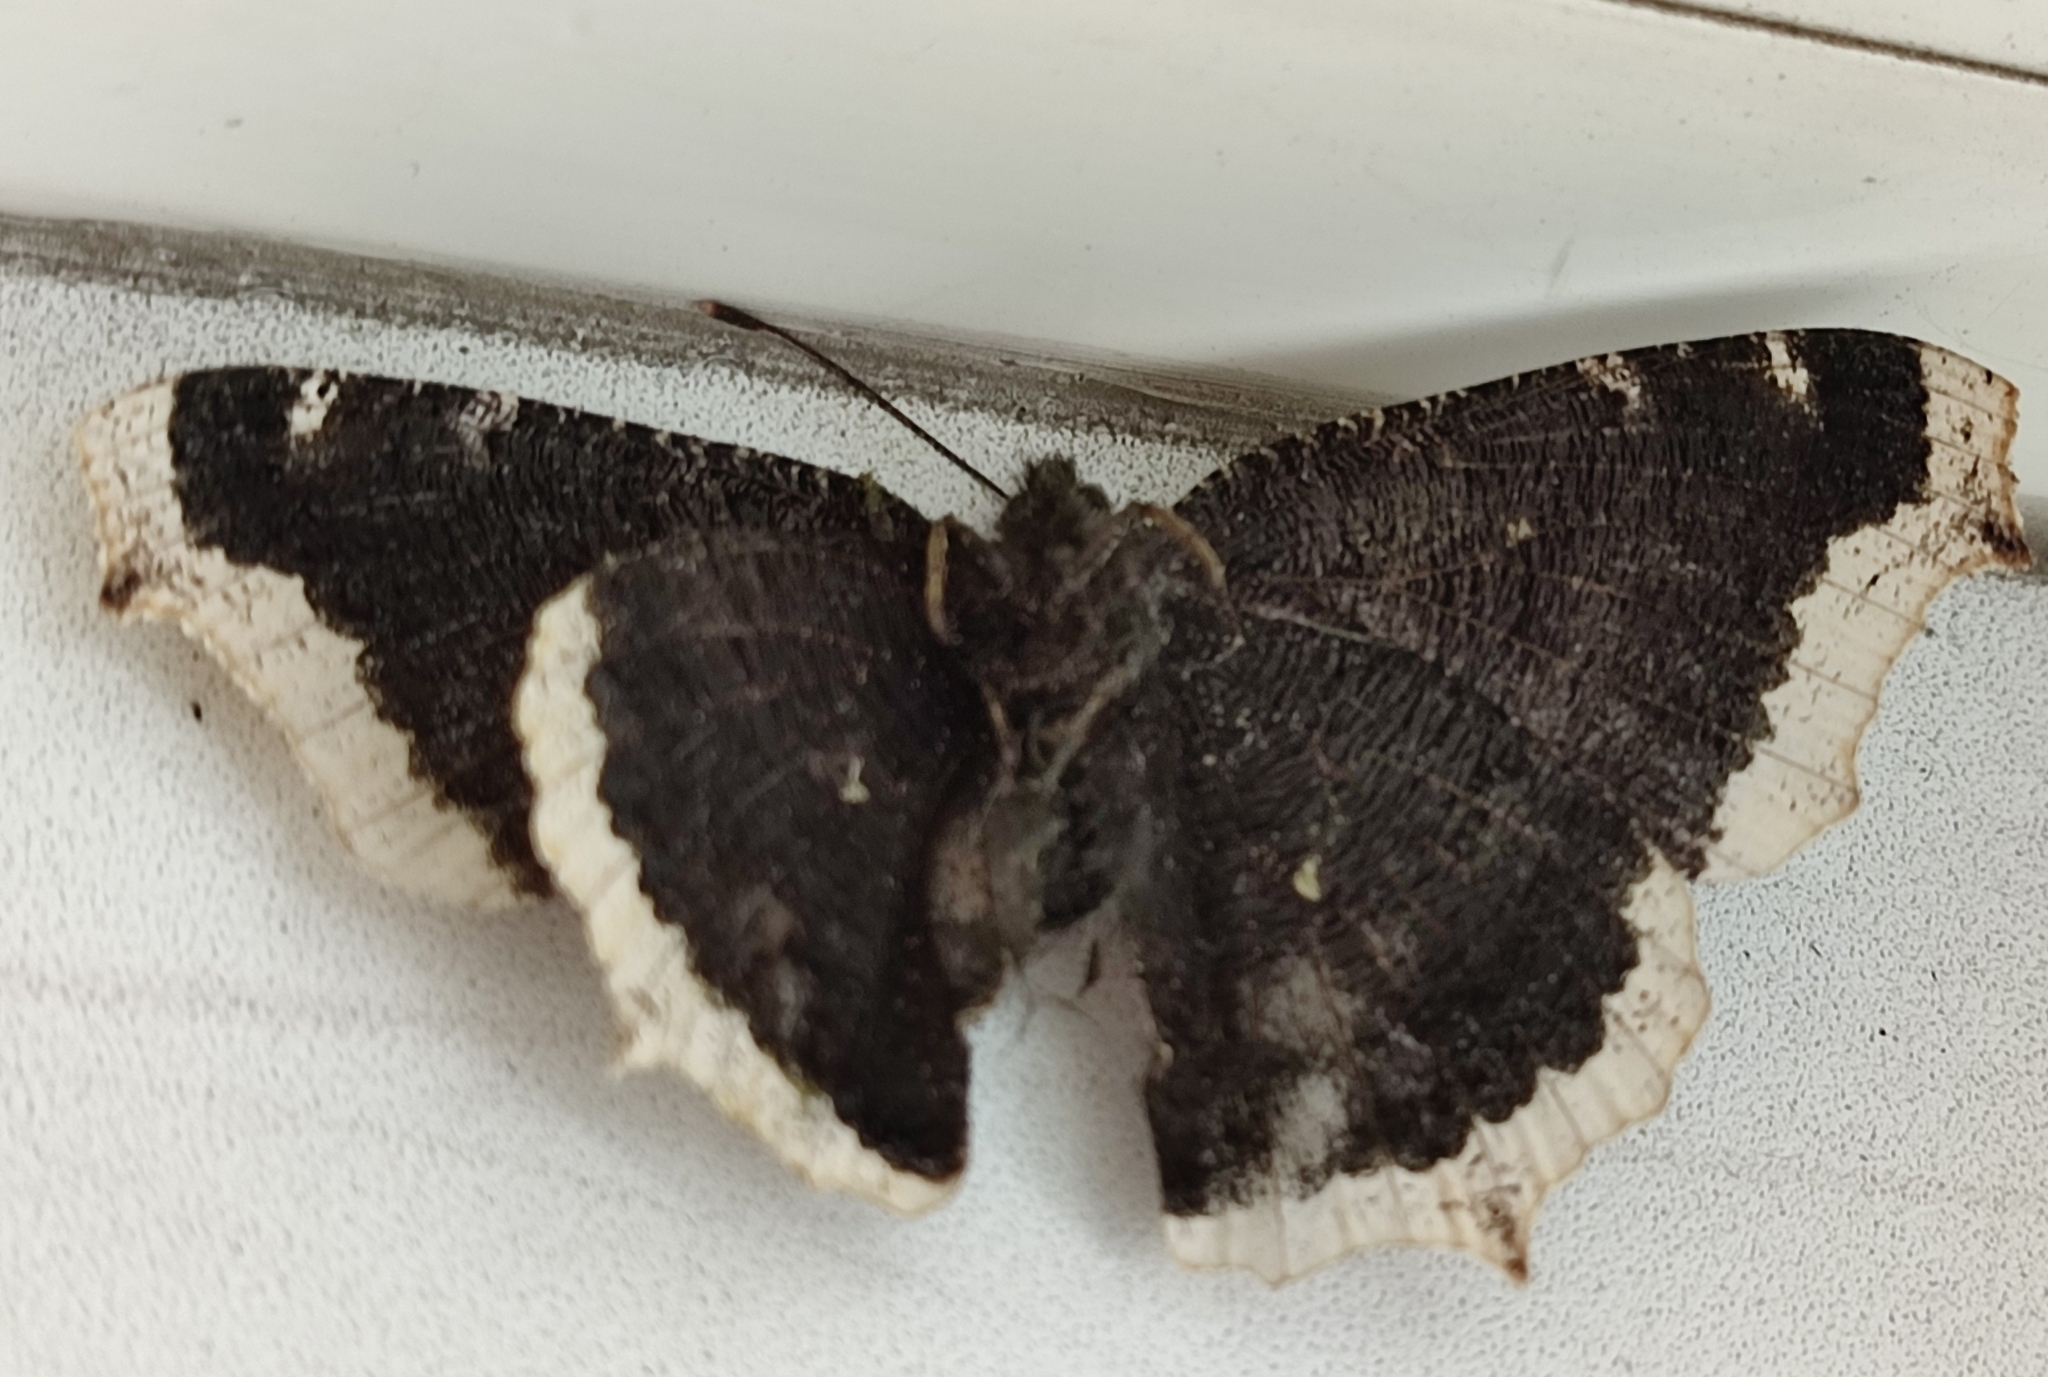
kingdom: Animalia
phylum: Arthropoda
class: Insecta
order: Lepidoptera
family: Nymphalidae
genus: Nymphalis
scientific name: Nymphalis antiopa
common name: Camberwell beauty
